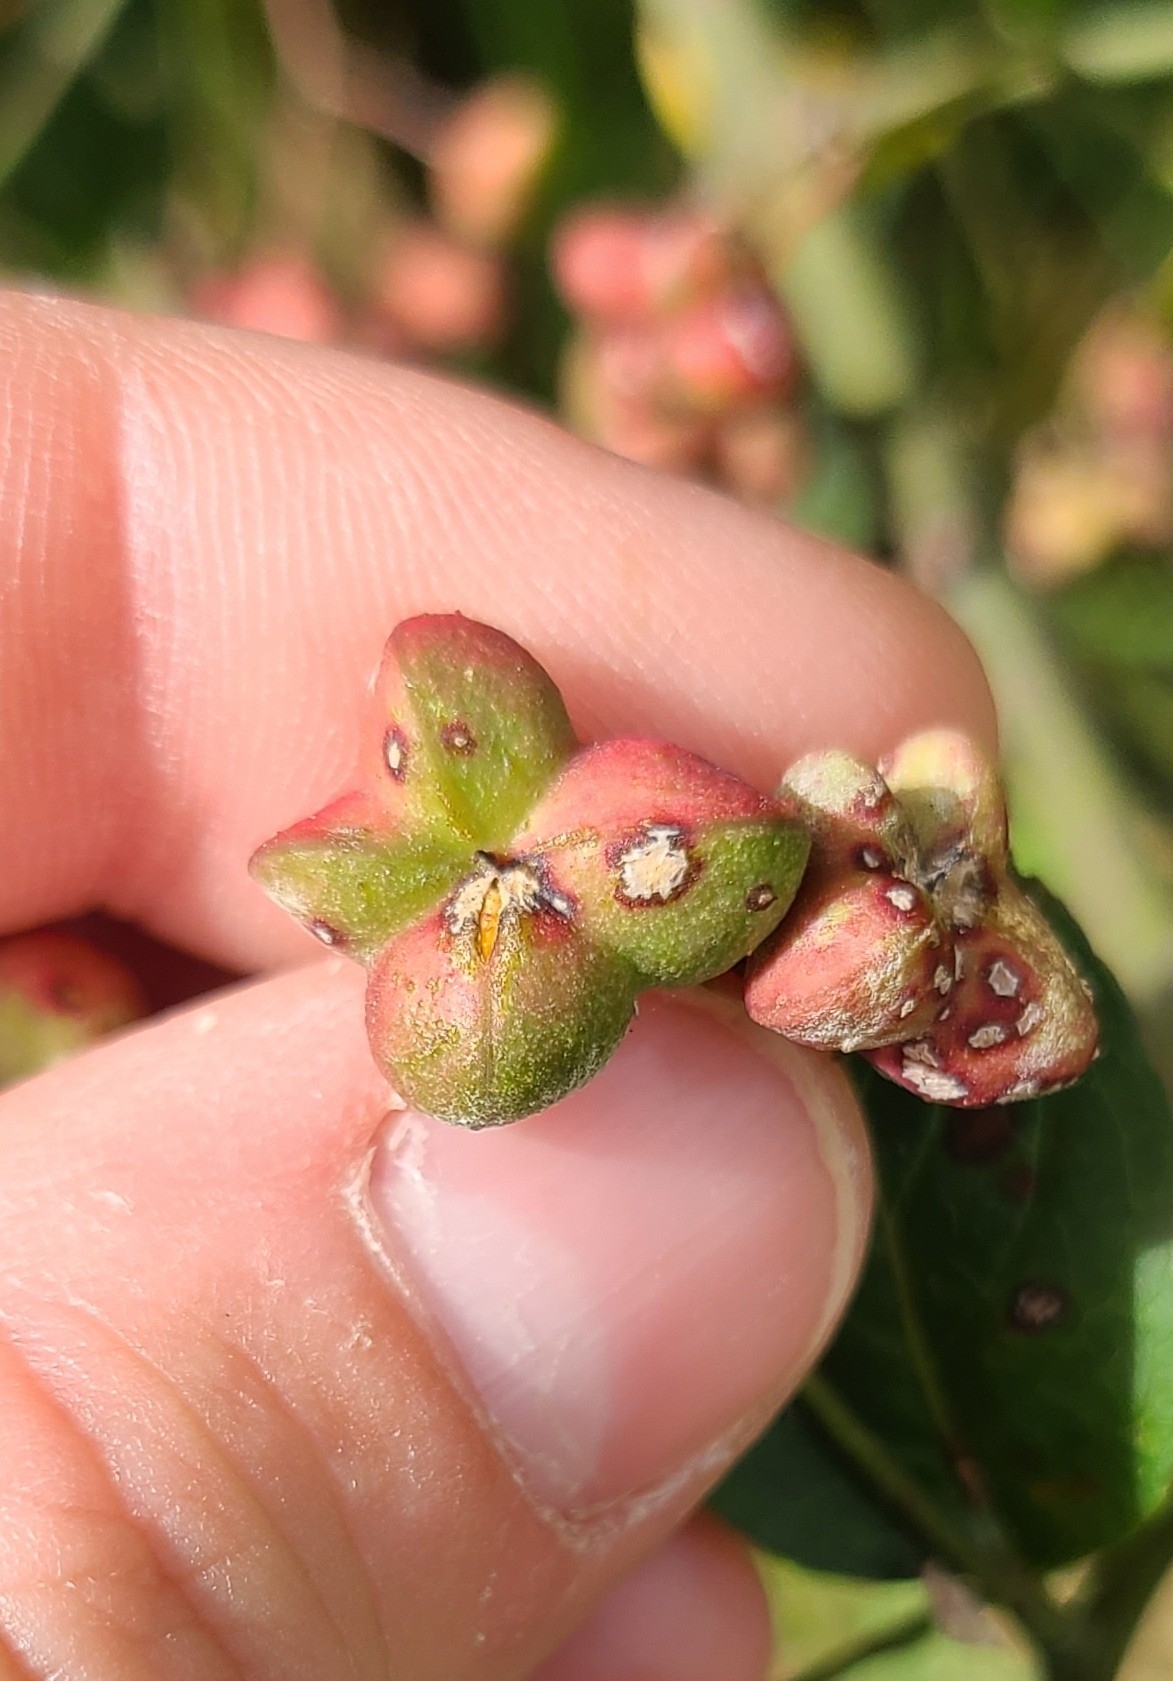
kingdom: Plantae
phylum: Tracheophyta
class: Magnoliopsida
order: Celastrales
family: Celastraceae
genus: Euonymus
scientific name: Euonymus europaeus
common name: Spindle
